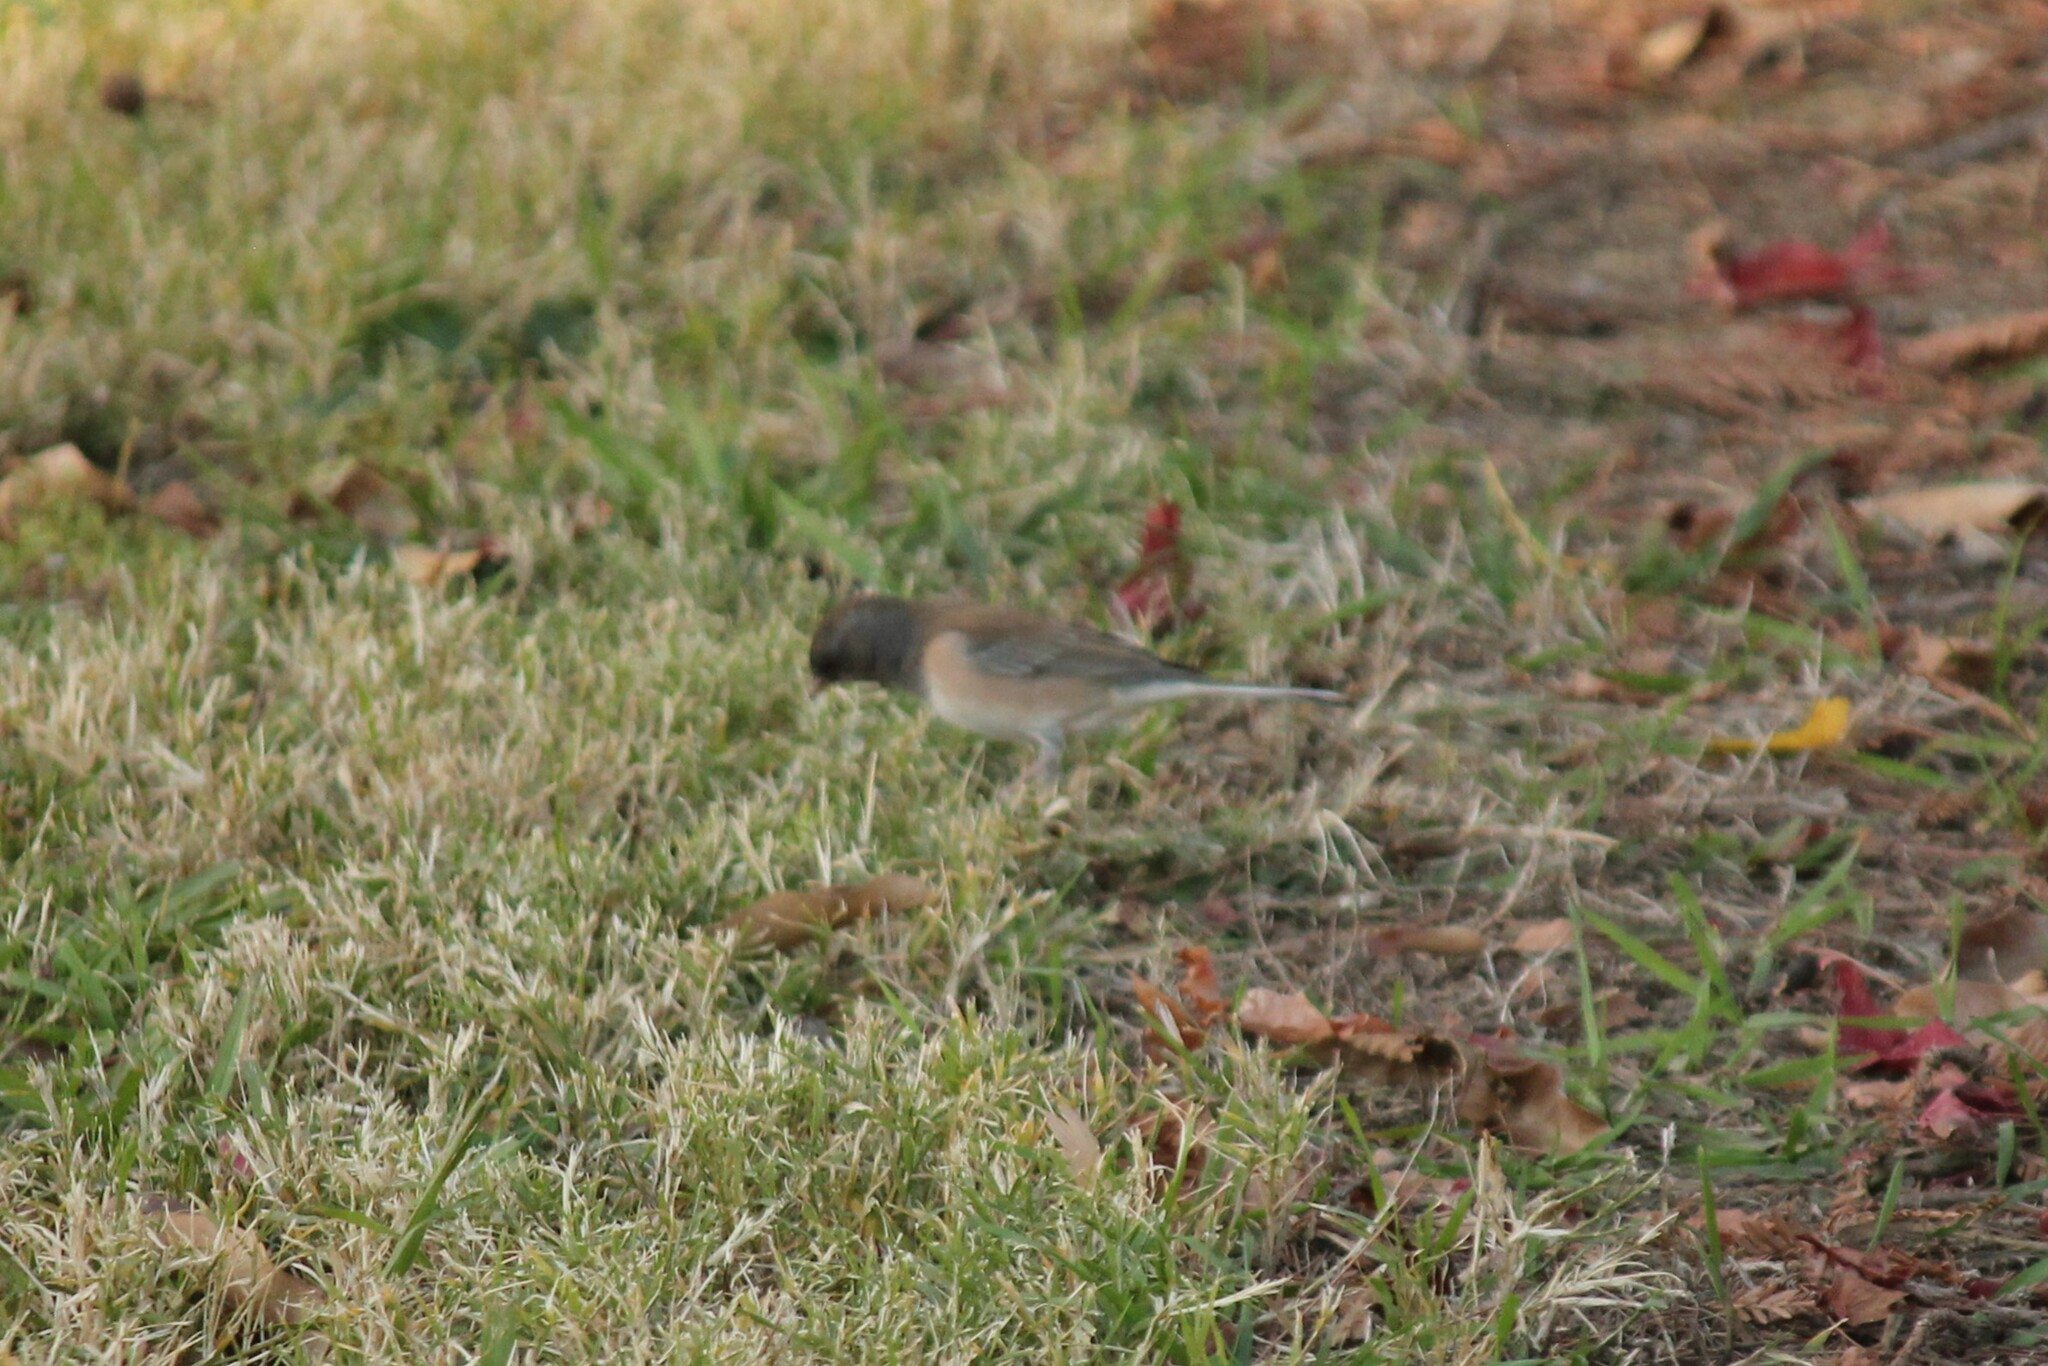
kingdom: Animalia
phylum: Chordata
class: Aves
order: Passeriformes
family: Passerellidae
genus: Junco
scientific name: Junco hyemalis
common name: Dark-eyed junco
